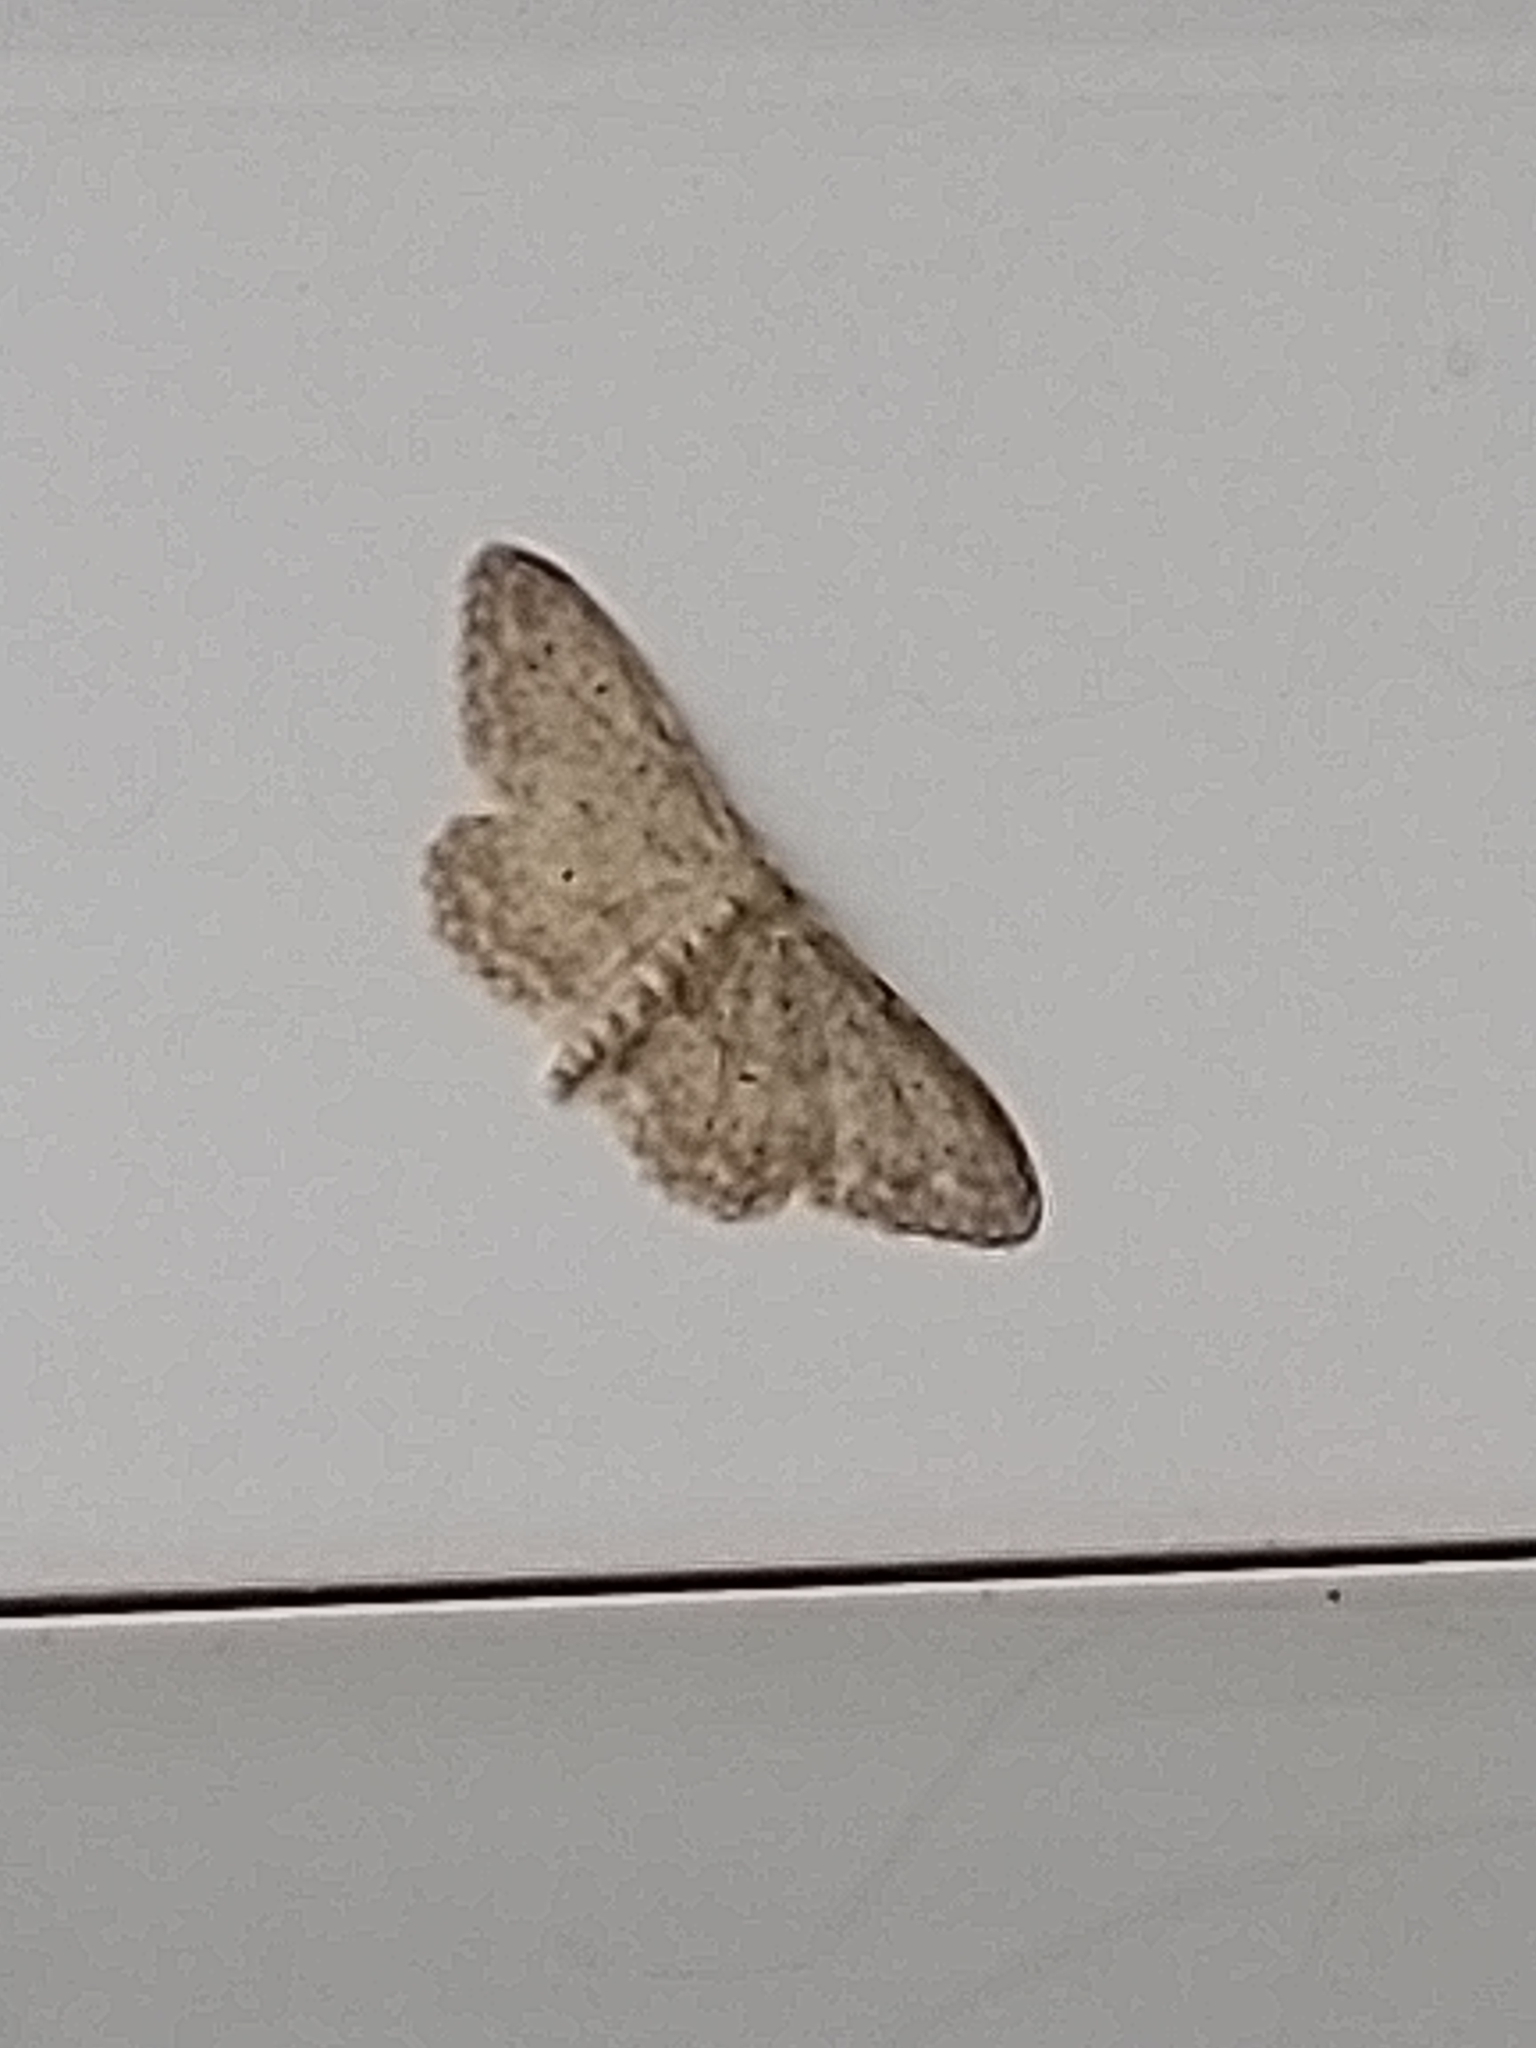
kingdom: Animalia
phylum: Arthropoda
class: Insecta
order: Lepidoptera
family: Geometridae
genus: Idaea
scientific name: Idaea seriata
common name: Small dusty wave
